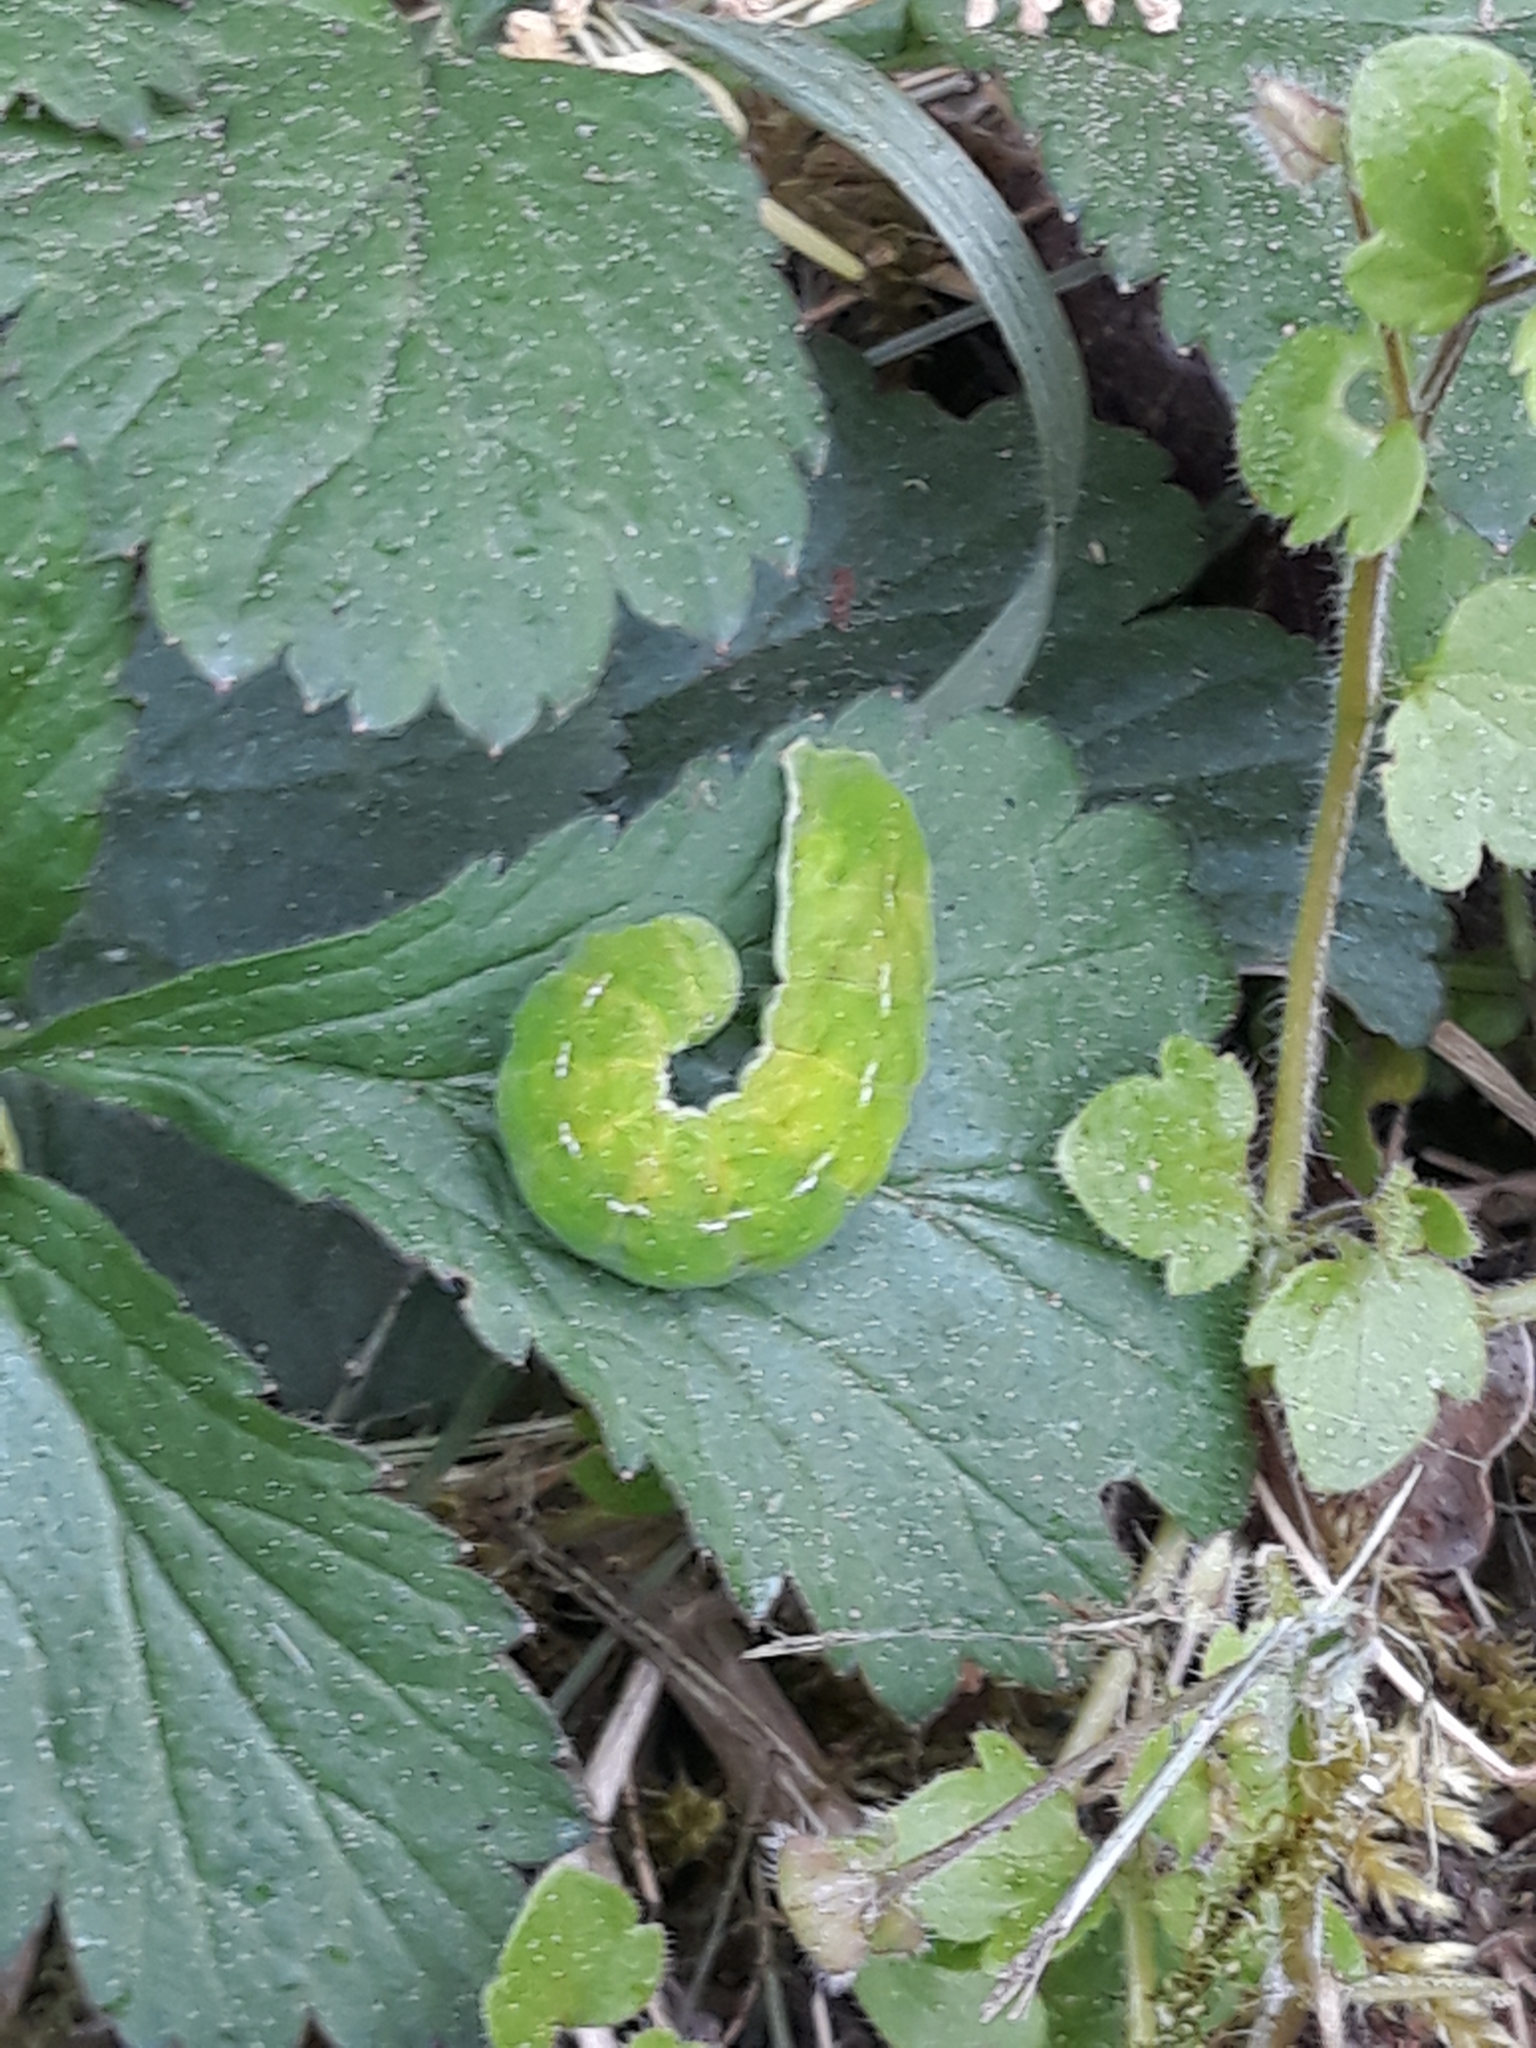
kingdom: Animalia
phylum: Arthropoda
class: Insecta
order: Lepidoptera
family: Noctuidae
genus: Phlogophora
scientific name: Phlogophora meticulosa
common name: Angle shades
